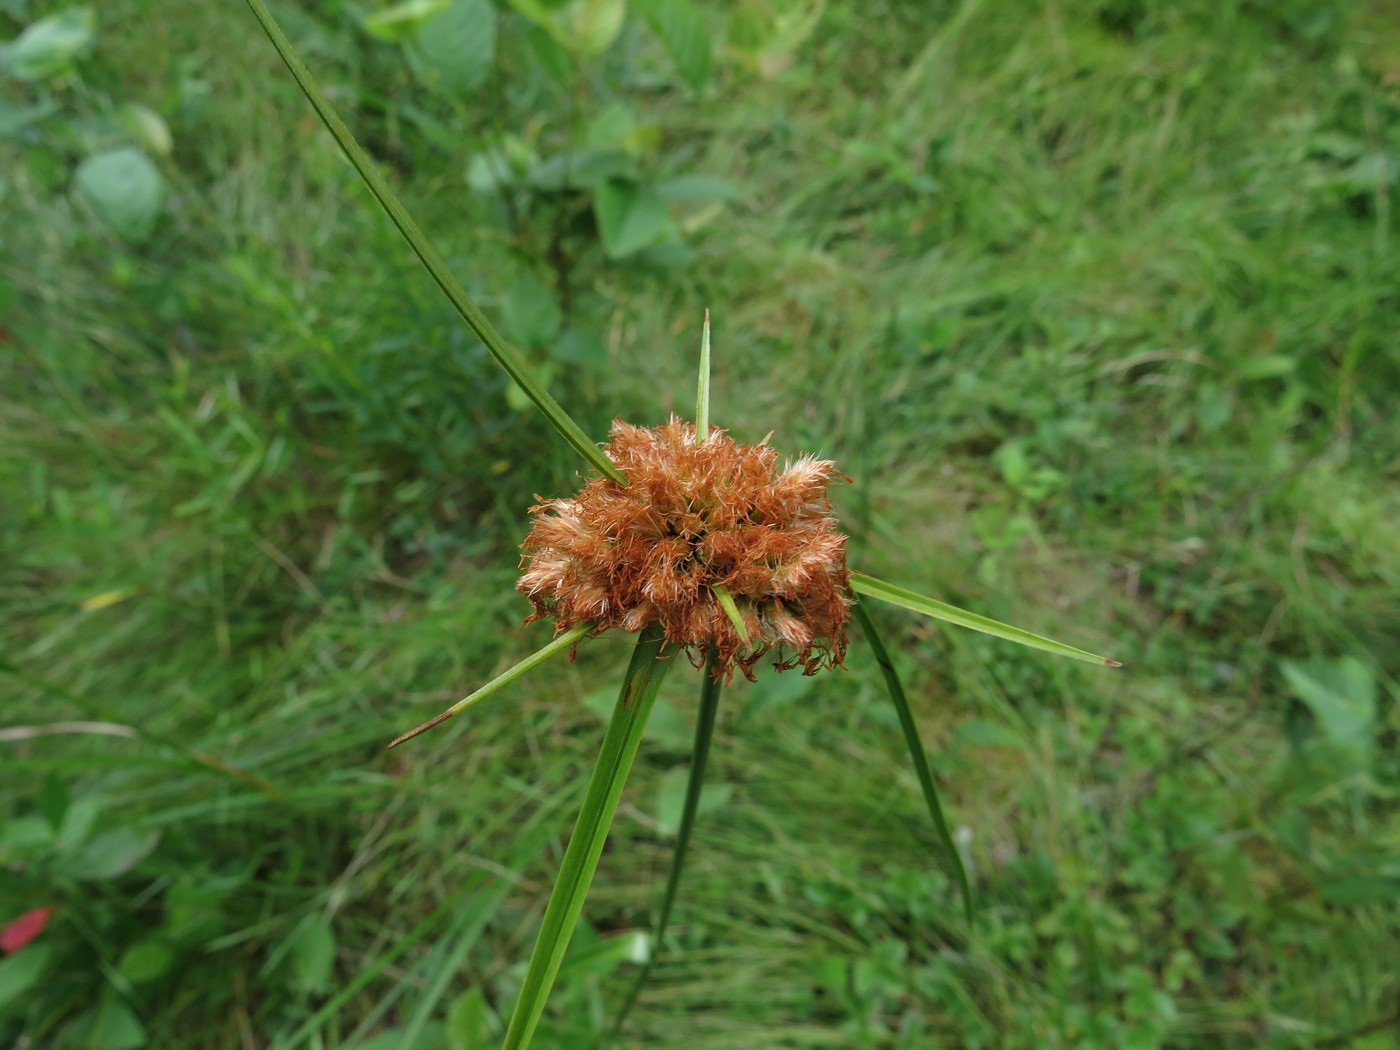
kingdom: Plantae
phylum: Tracheophyta
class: Liliopsida
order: Poales
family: Cyperaceae
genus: Eriophorum
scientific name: Eriophorum virginicum
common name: Tawny cottongrass
